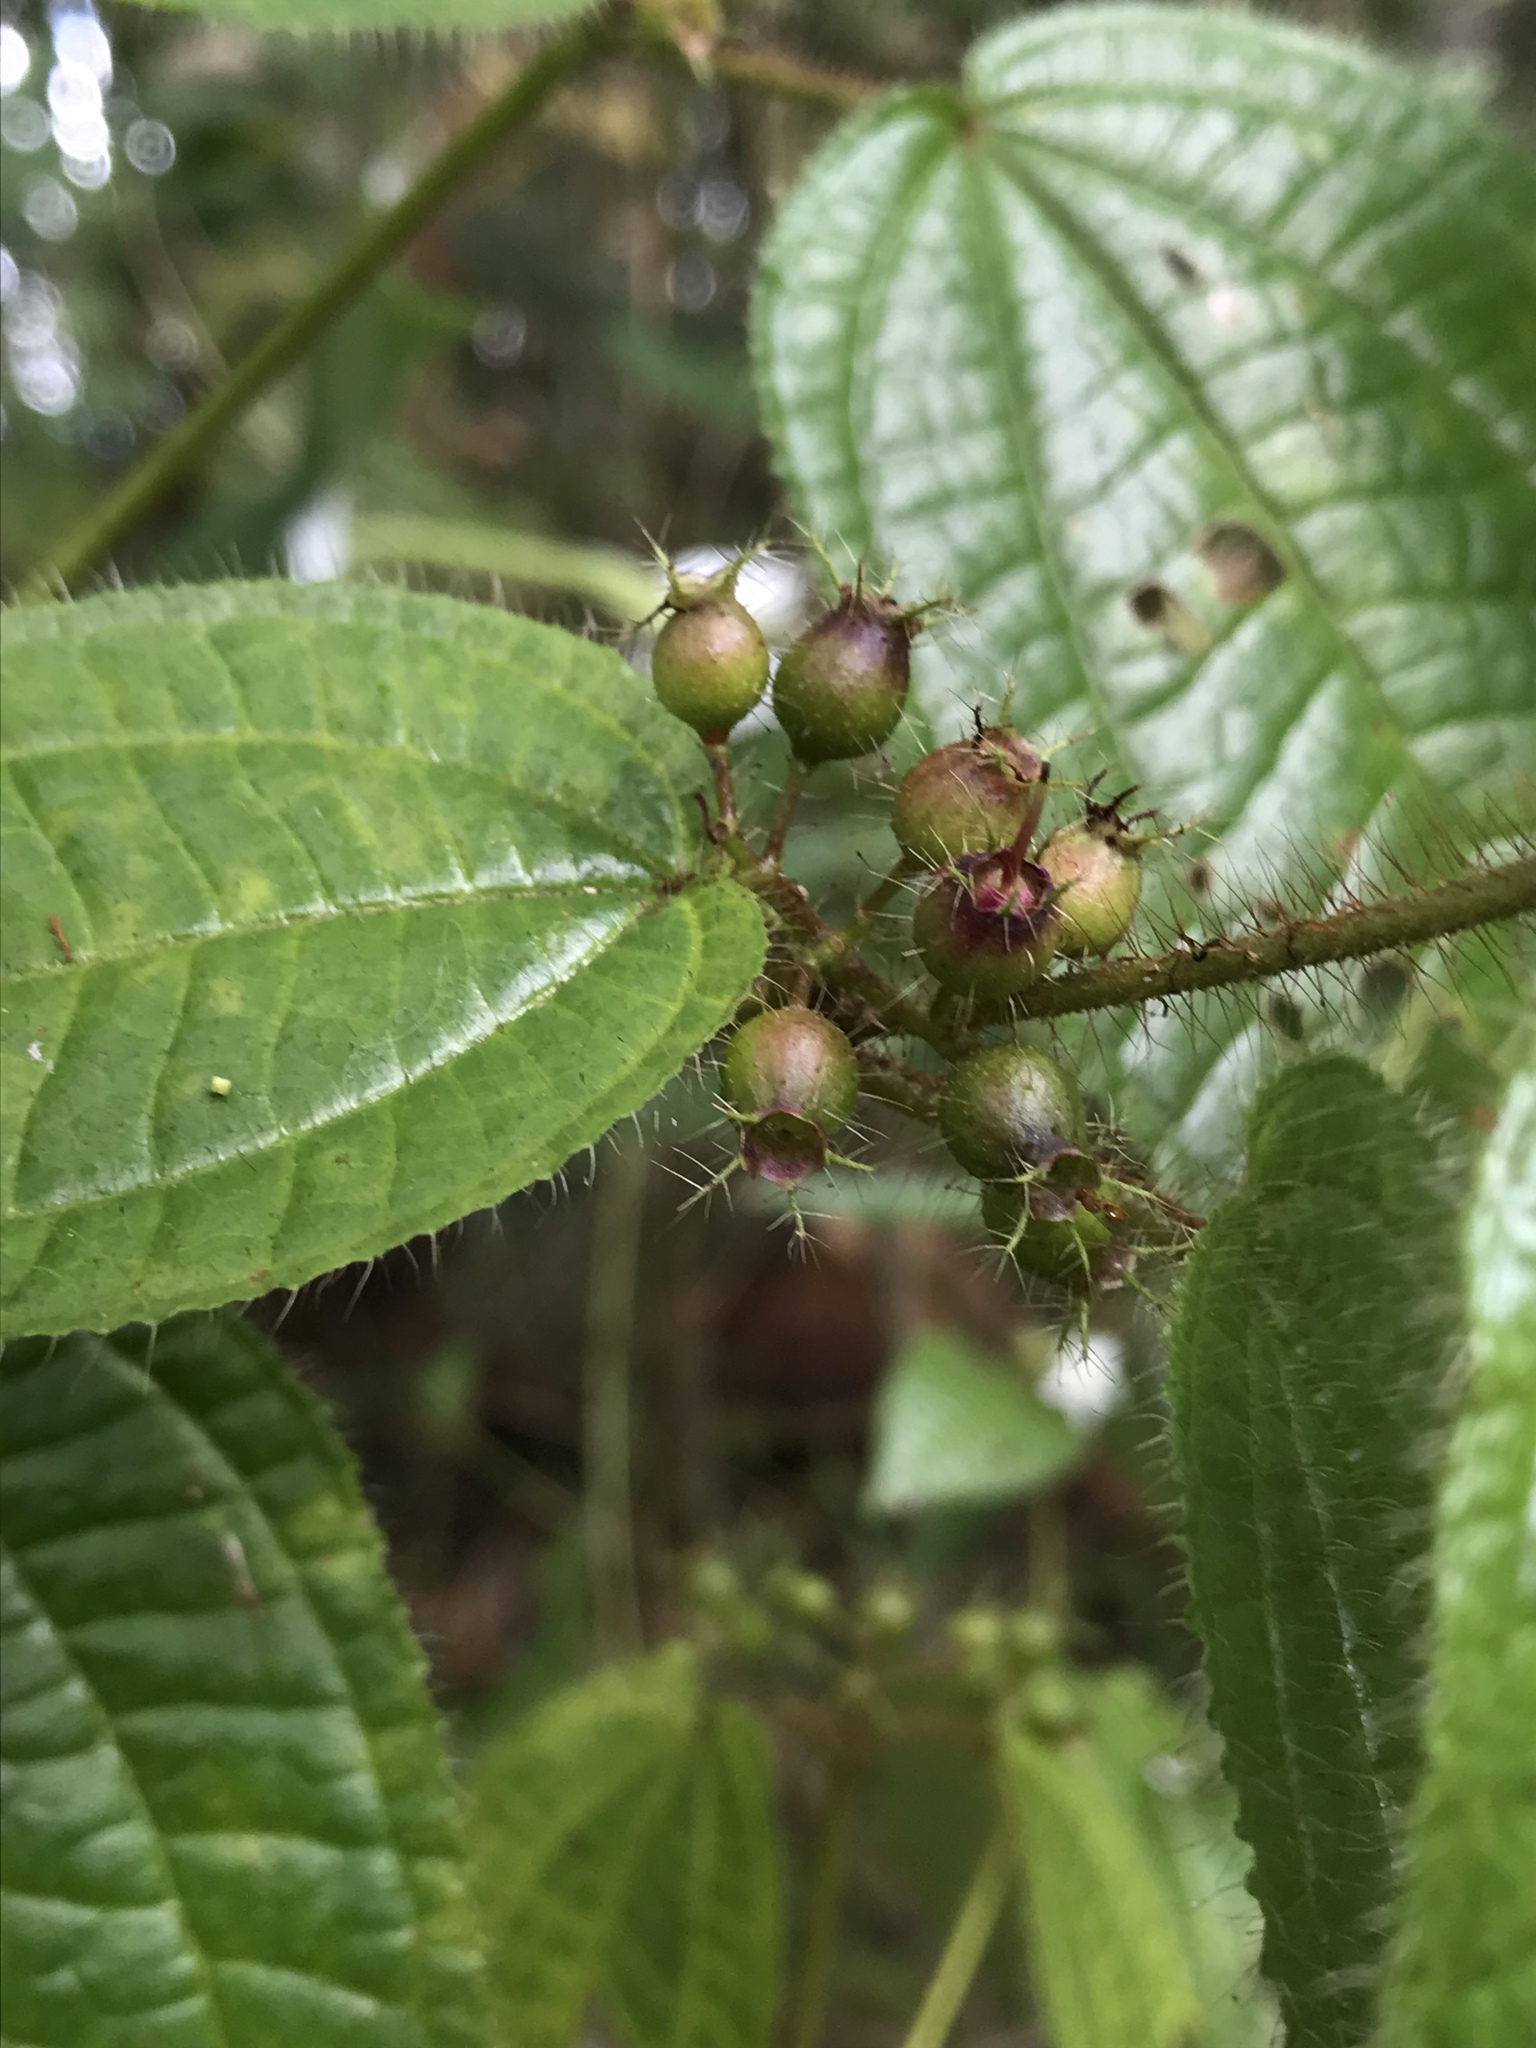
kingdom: Plantae
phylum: Tracheophyta
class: Magnoliopsida
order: Myrtales
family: Melastomataceae
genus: Miconia
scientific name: Miconia crenata
